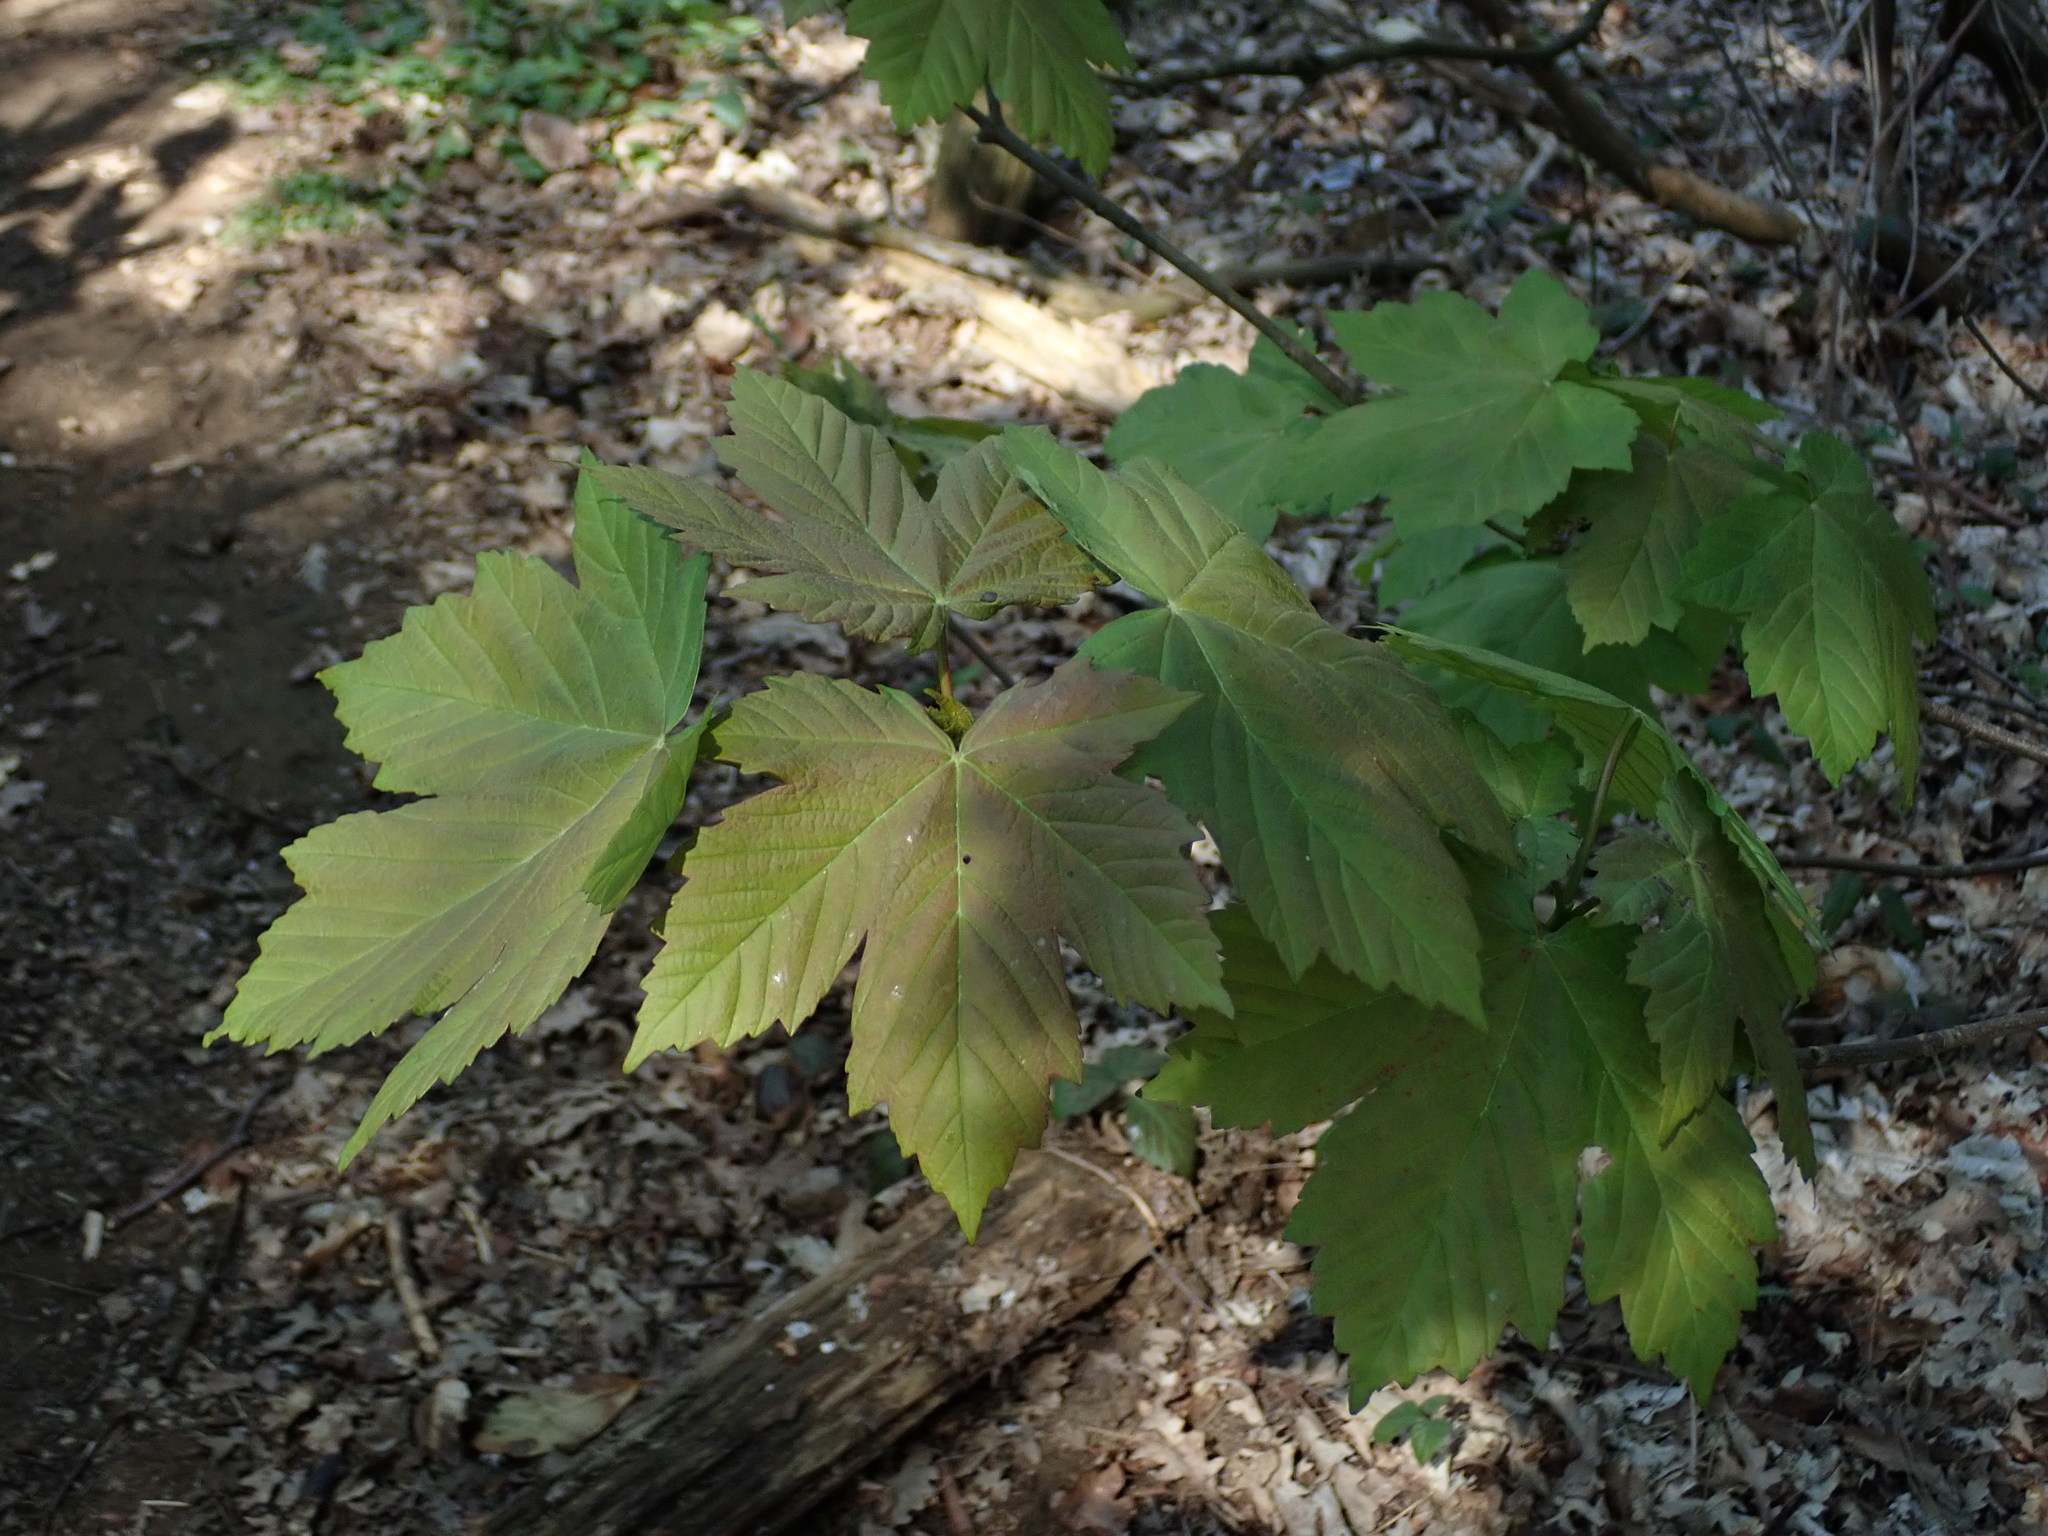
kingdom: Plantae
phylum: Tracheophyta
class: Magnoliopsida
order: Sapindales
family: Sapindaceae
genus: Acer
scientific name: Acer pseudoplatanus
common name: Sycamore
